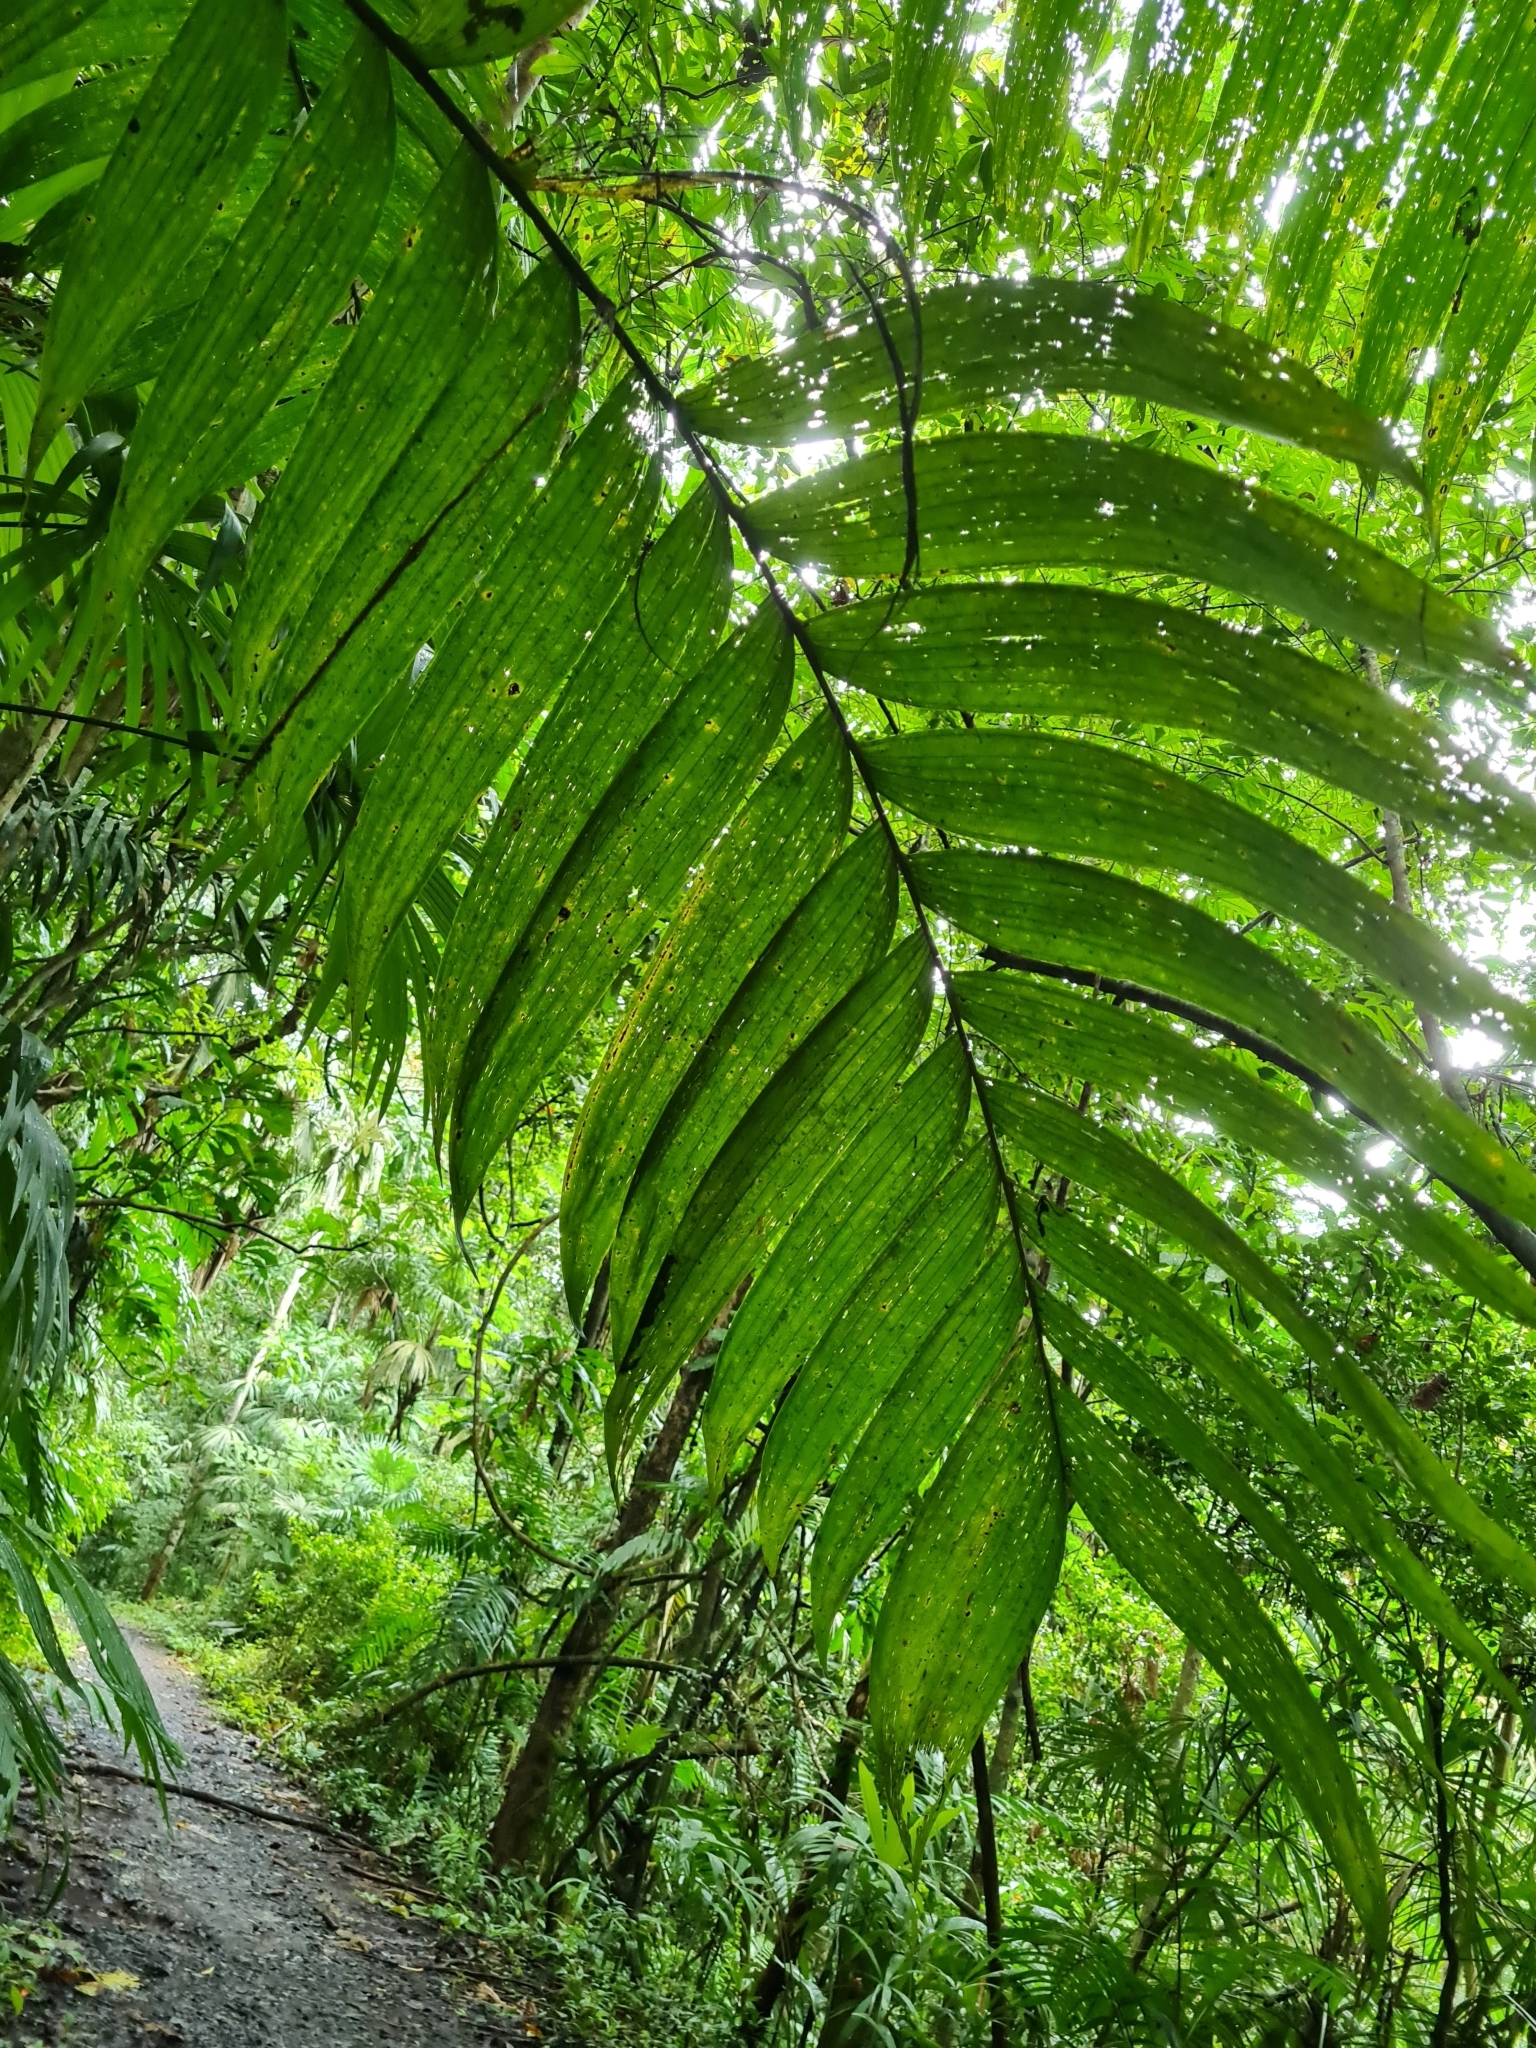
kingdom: Plantae
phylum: Tracheophyta
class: Liliopsida
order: Arecales
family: Arecaceae
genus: Chamaedorea
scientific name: Chamaedorea tepejilote
